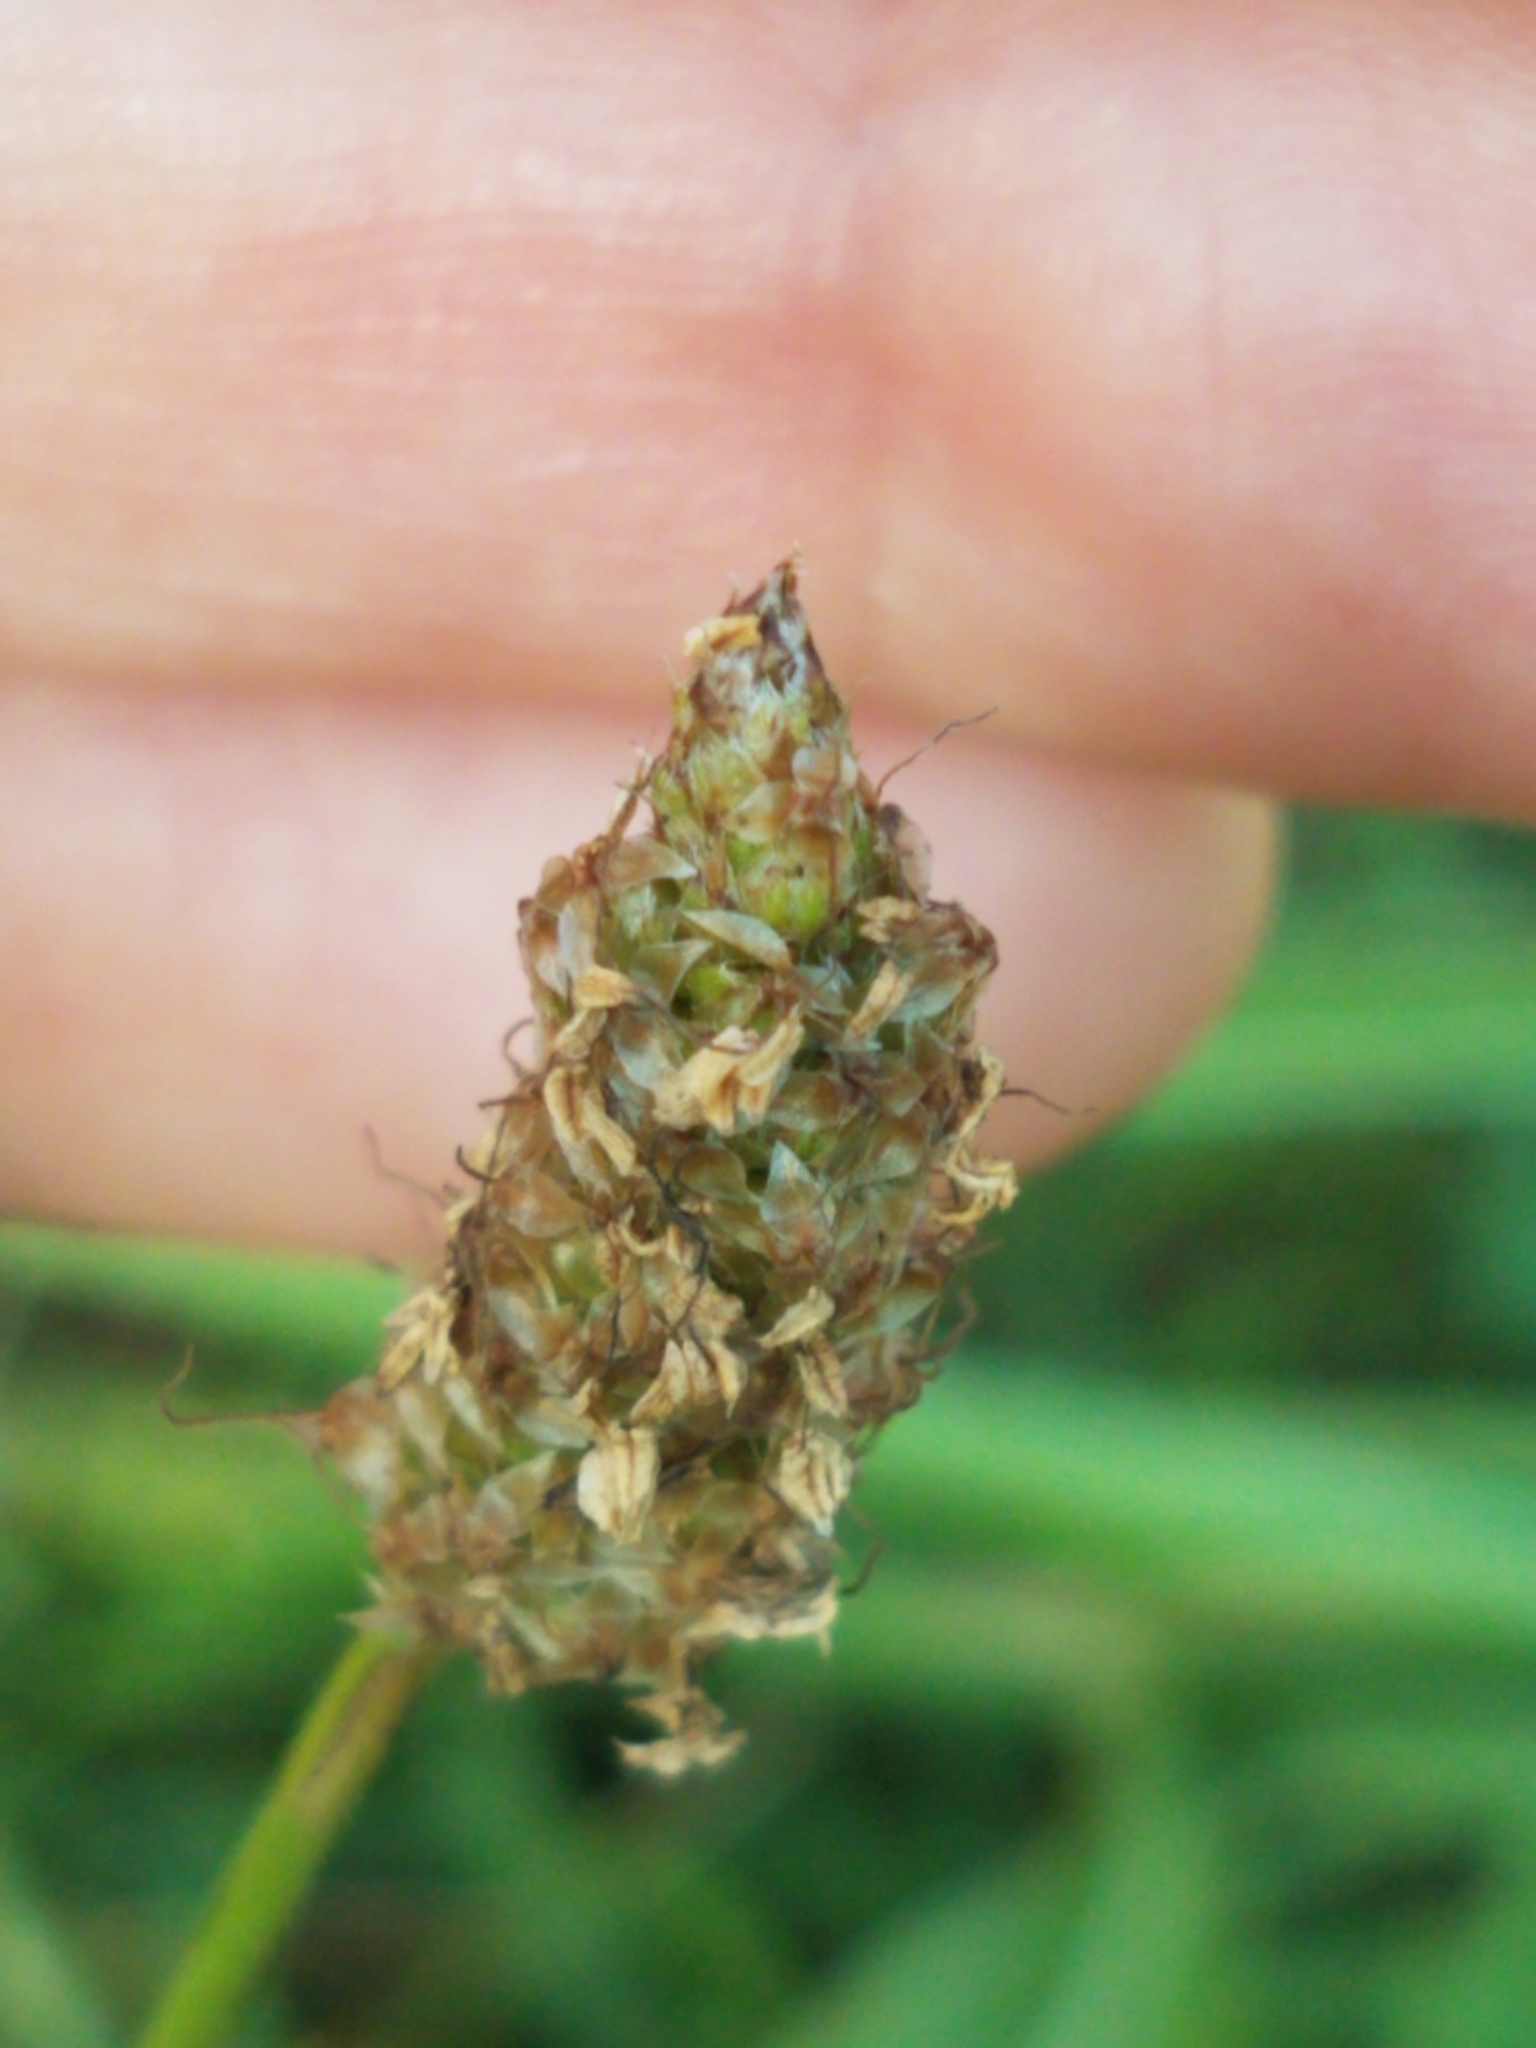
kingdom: Plantae
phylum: Tracheophyta
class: Magnoliopsida
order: Lamiales
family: Plantaginaceae
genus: Plantago
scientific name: Plantago lanceolata
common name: Ribwort plantain
